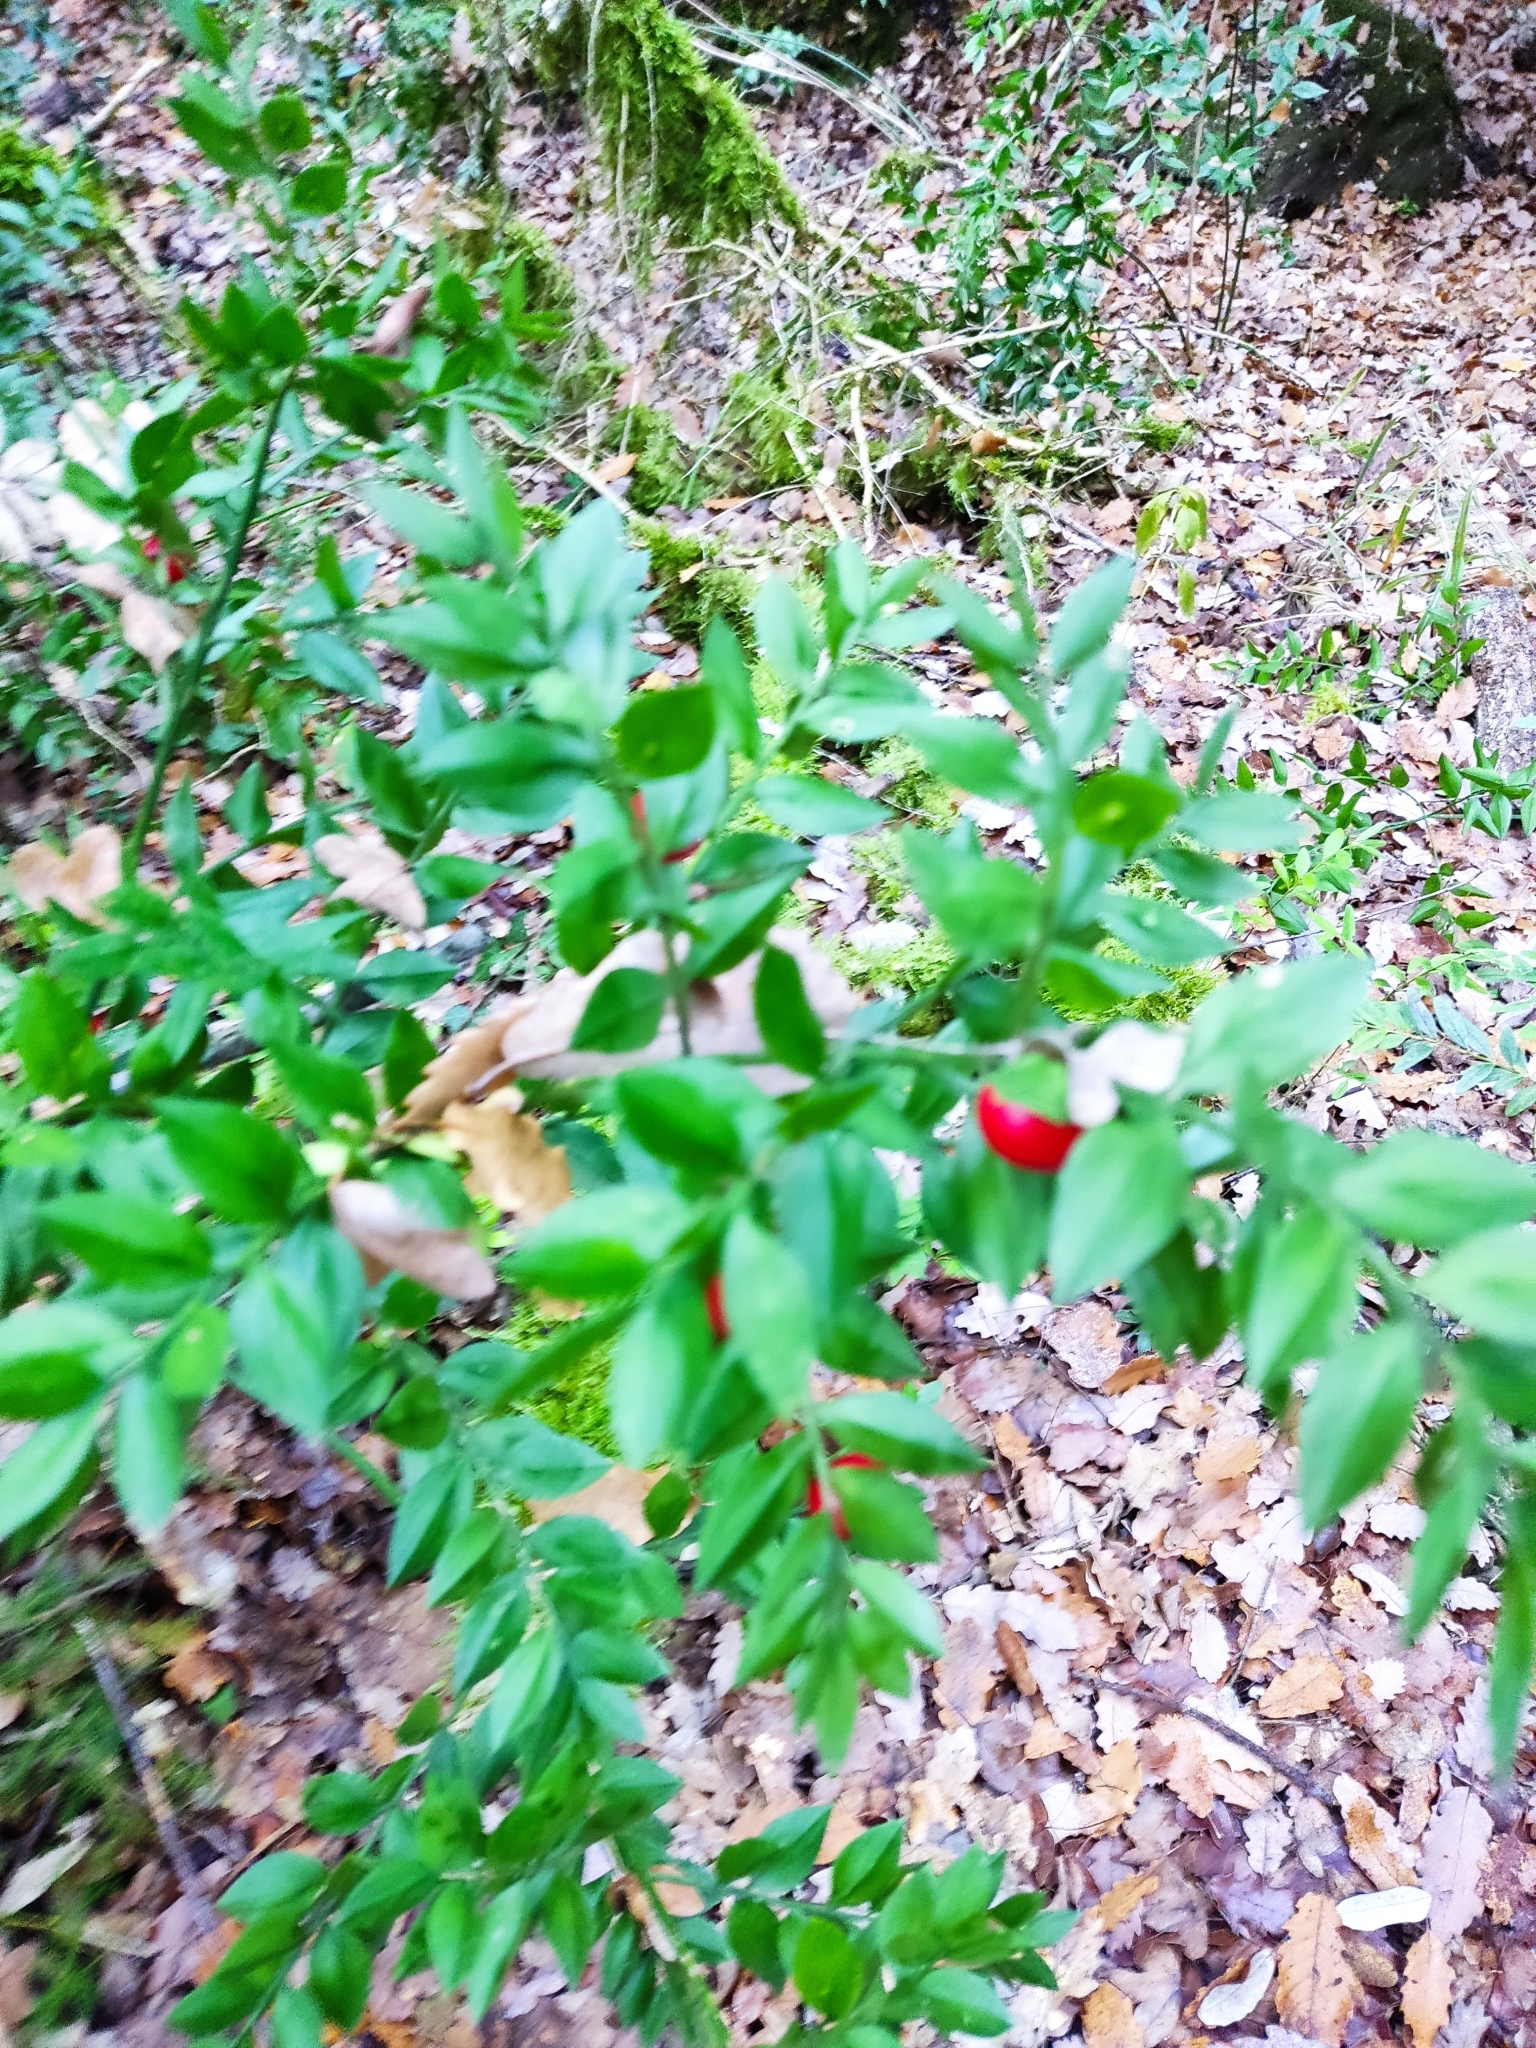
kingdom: Plantae
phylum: Tracheophyta
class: Liliopsida
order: Asparagales
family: Asparagaceae
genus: Ruscus
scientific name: Ruscus aculeatus
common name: Butcher's-broom
